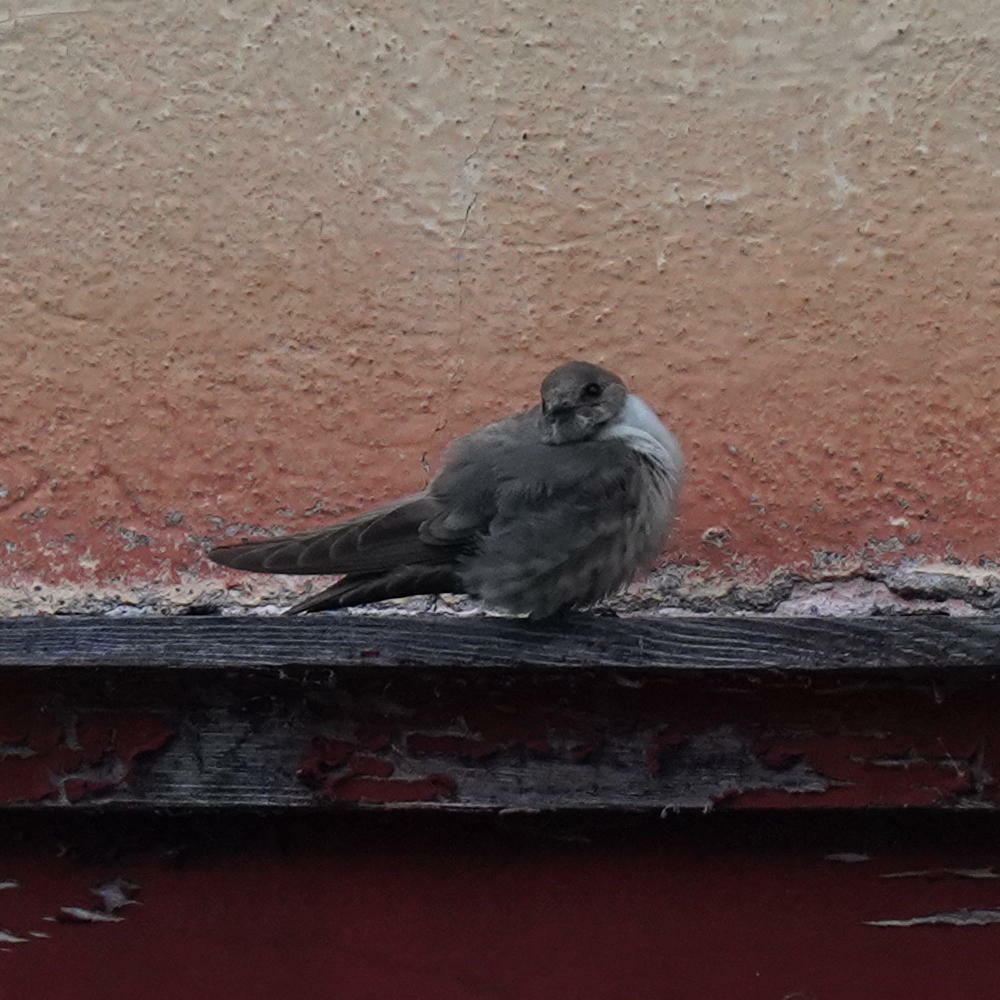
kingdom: Animalia
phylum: Chordata
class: Aves
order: Passeriformes
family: Hirundinidae
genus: Ptyonoprogne
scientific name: Ptyonoprogne rupestris
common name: Eurasian crag martin
